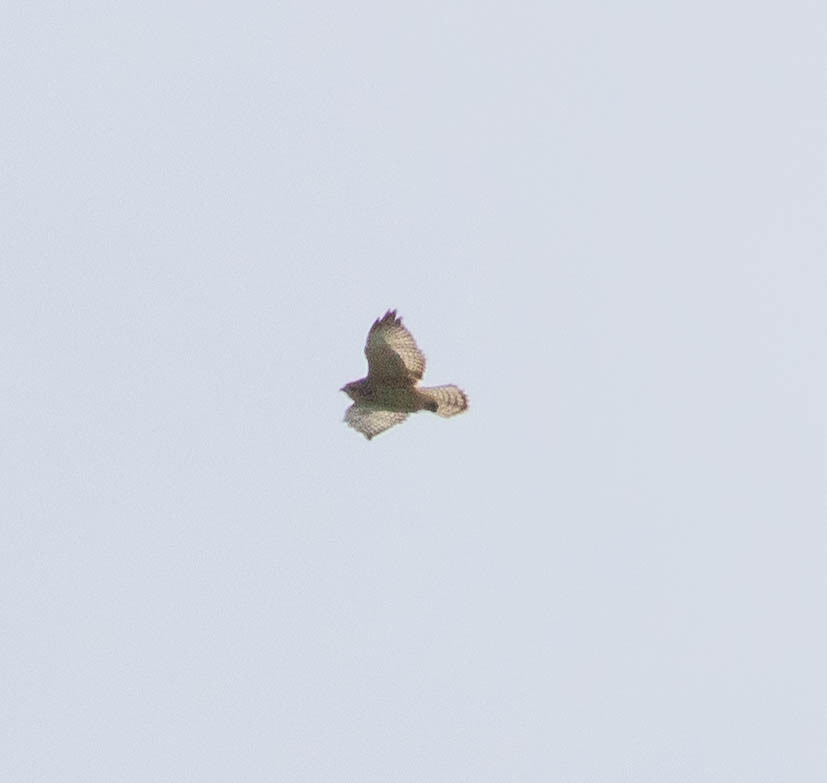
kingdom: Animalia
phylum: Chordata
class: Aves
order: Accipitriformes
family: Accipitridae
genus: Buteo
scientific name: Buteo platypterus
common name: Broad-winged hawk
